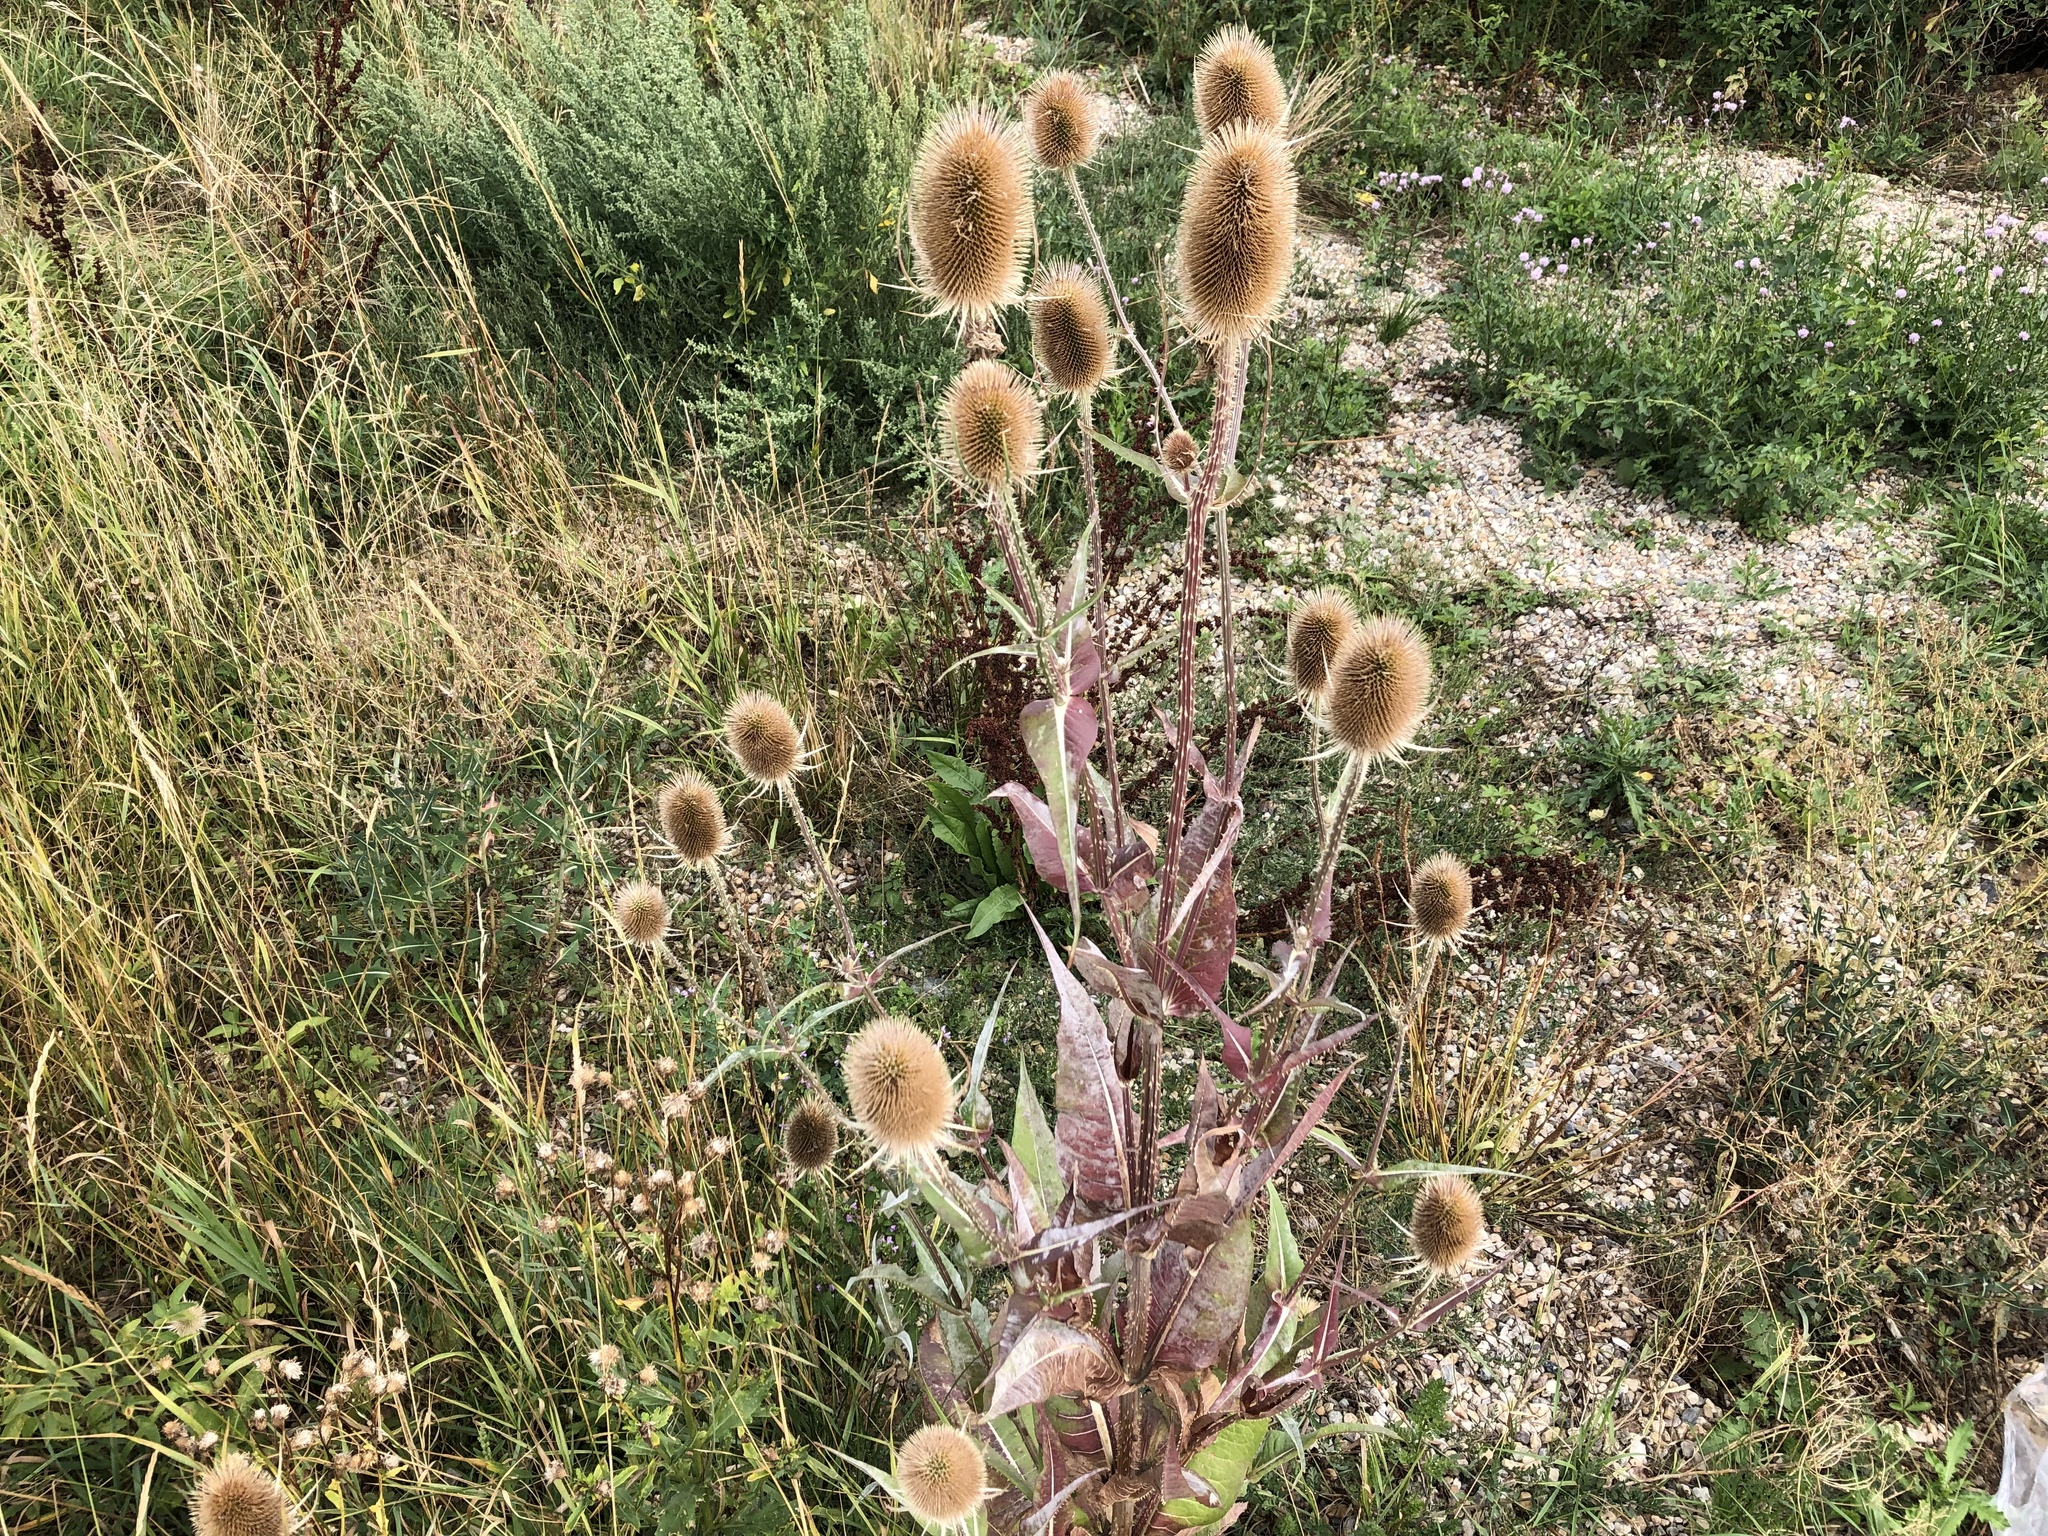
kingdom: Plantae
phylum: Tracheophyta
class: Magnoliopsida
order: Dipsacales
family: Caprifoliaceae
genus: Dipsacus
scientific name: Dipsacus fullonum
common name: Teasel
